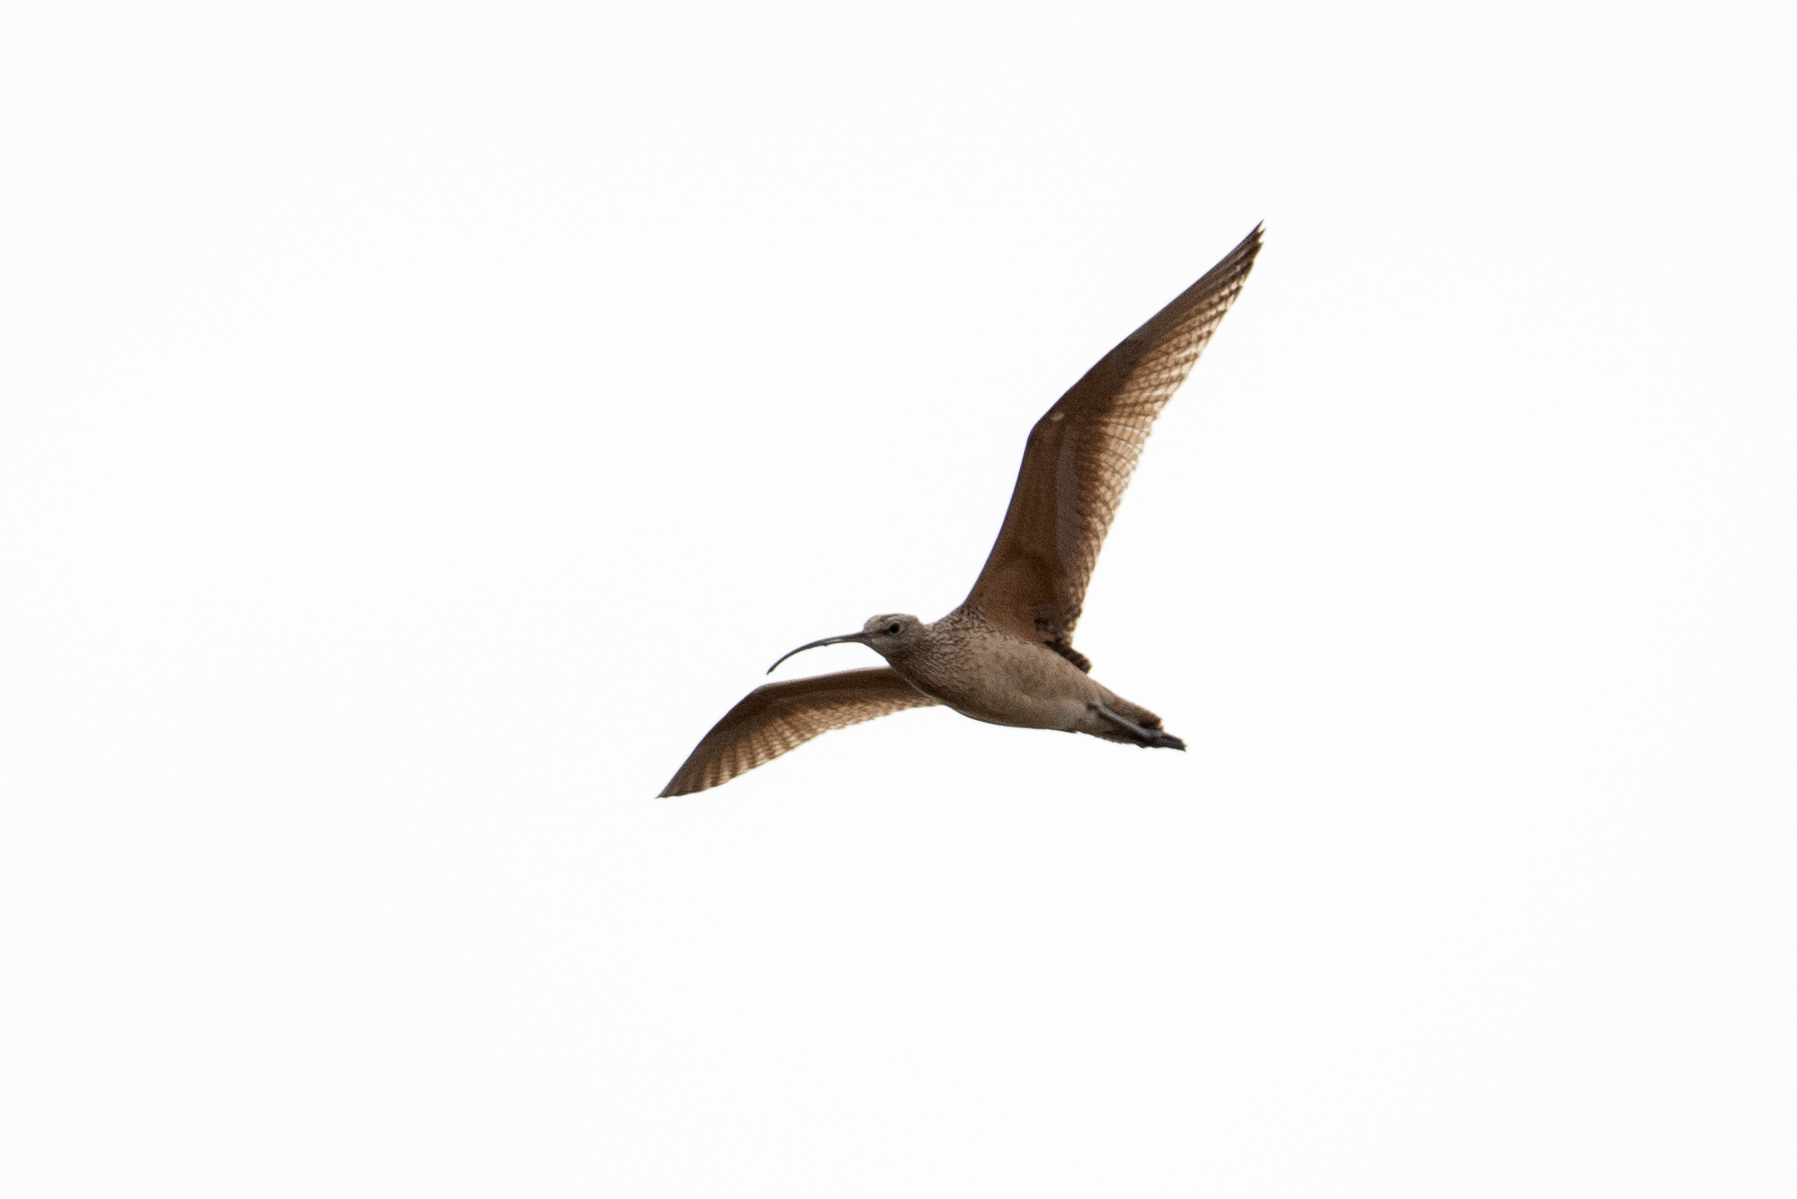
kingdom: Animalia
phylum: Chordata
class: Aves
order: Charadriiformes
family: Scolopacidae
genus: Numenius
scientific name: Numenius americanus
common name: Long-billed curlew
